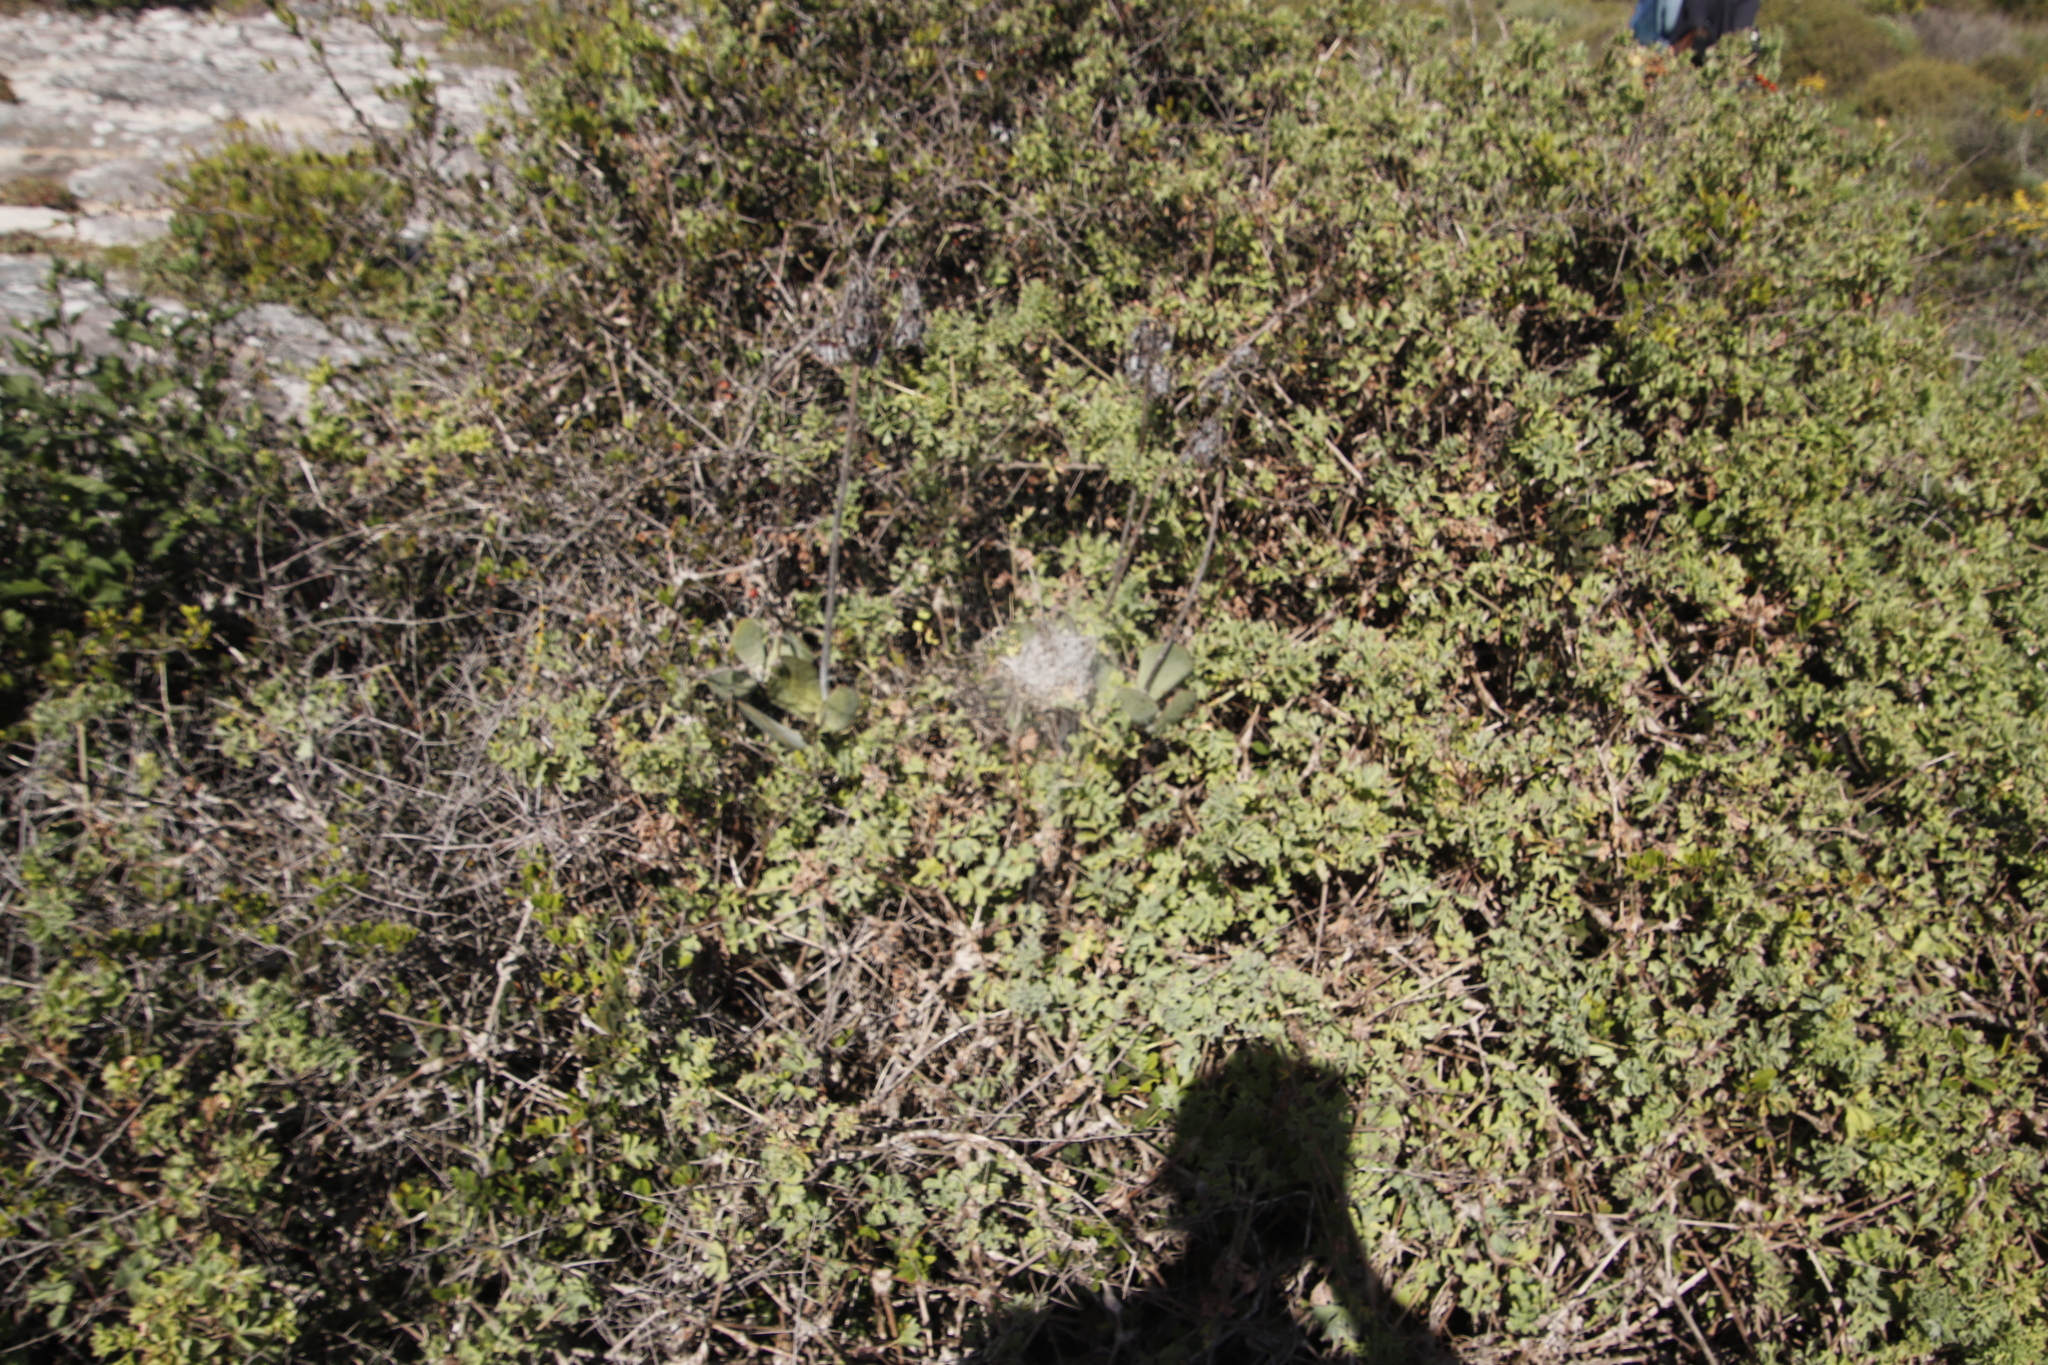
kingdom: Animalia
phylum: Arthropoda
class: Arachnida
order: Araneae
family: Eresidae
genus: Stegodyphus
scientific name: Stegodyphus dumicola
